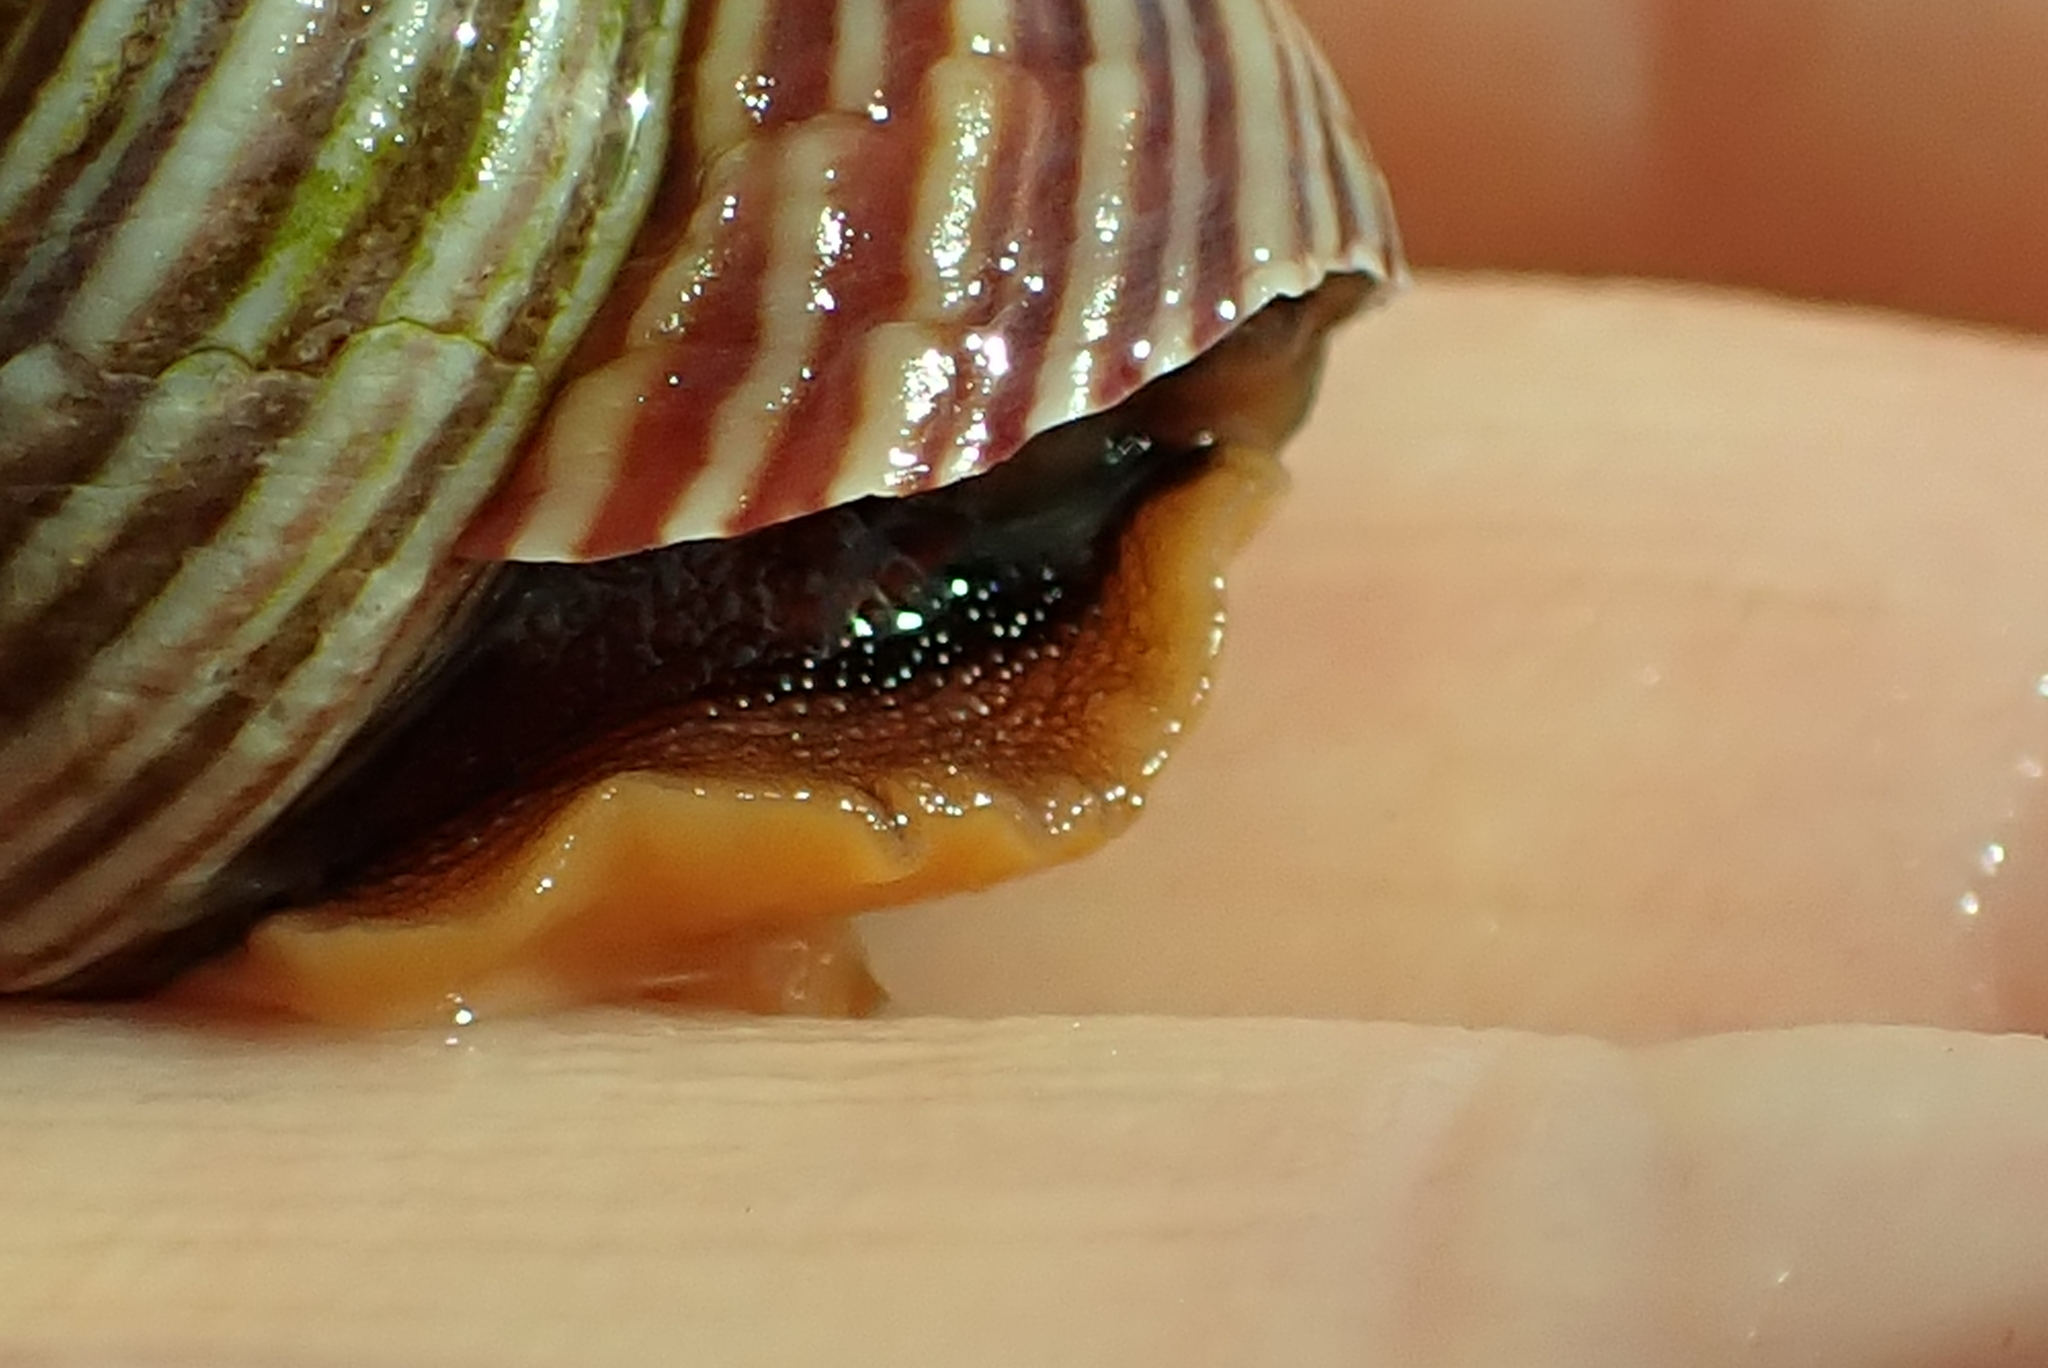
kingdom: Animalia
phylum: Mollusca
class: Gastropoda
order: Trochida
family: Calliostomatidae
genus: Calliostoma
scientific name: Calliostoma ligatum
